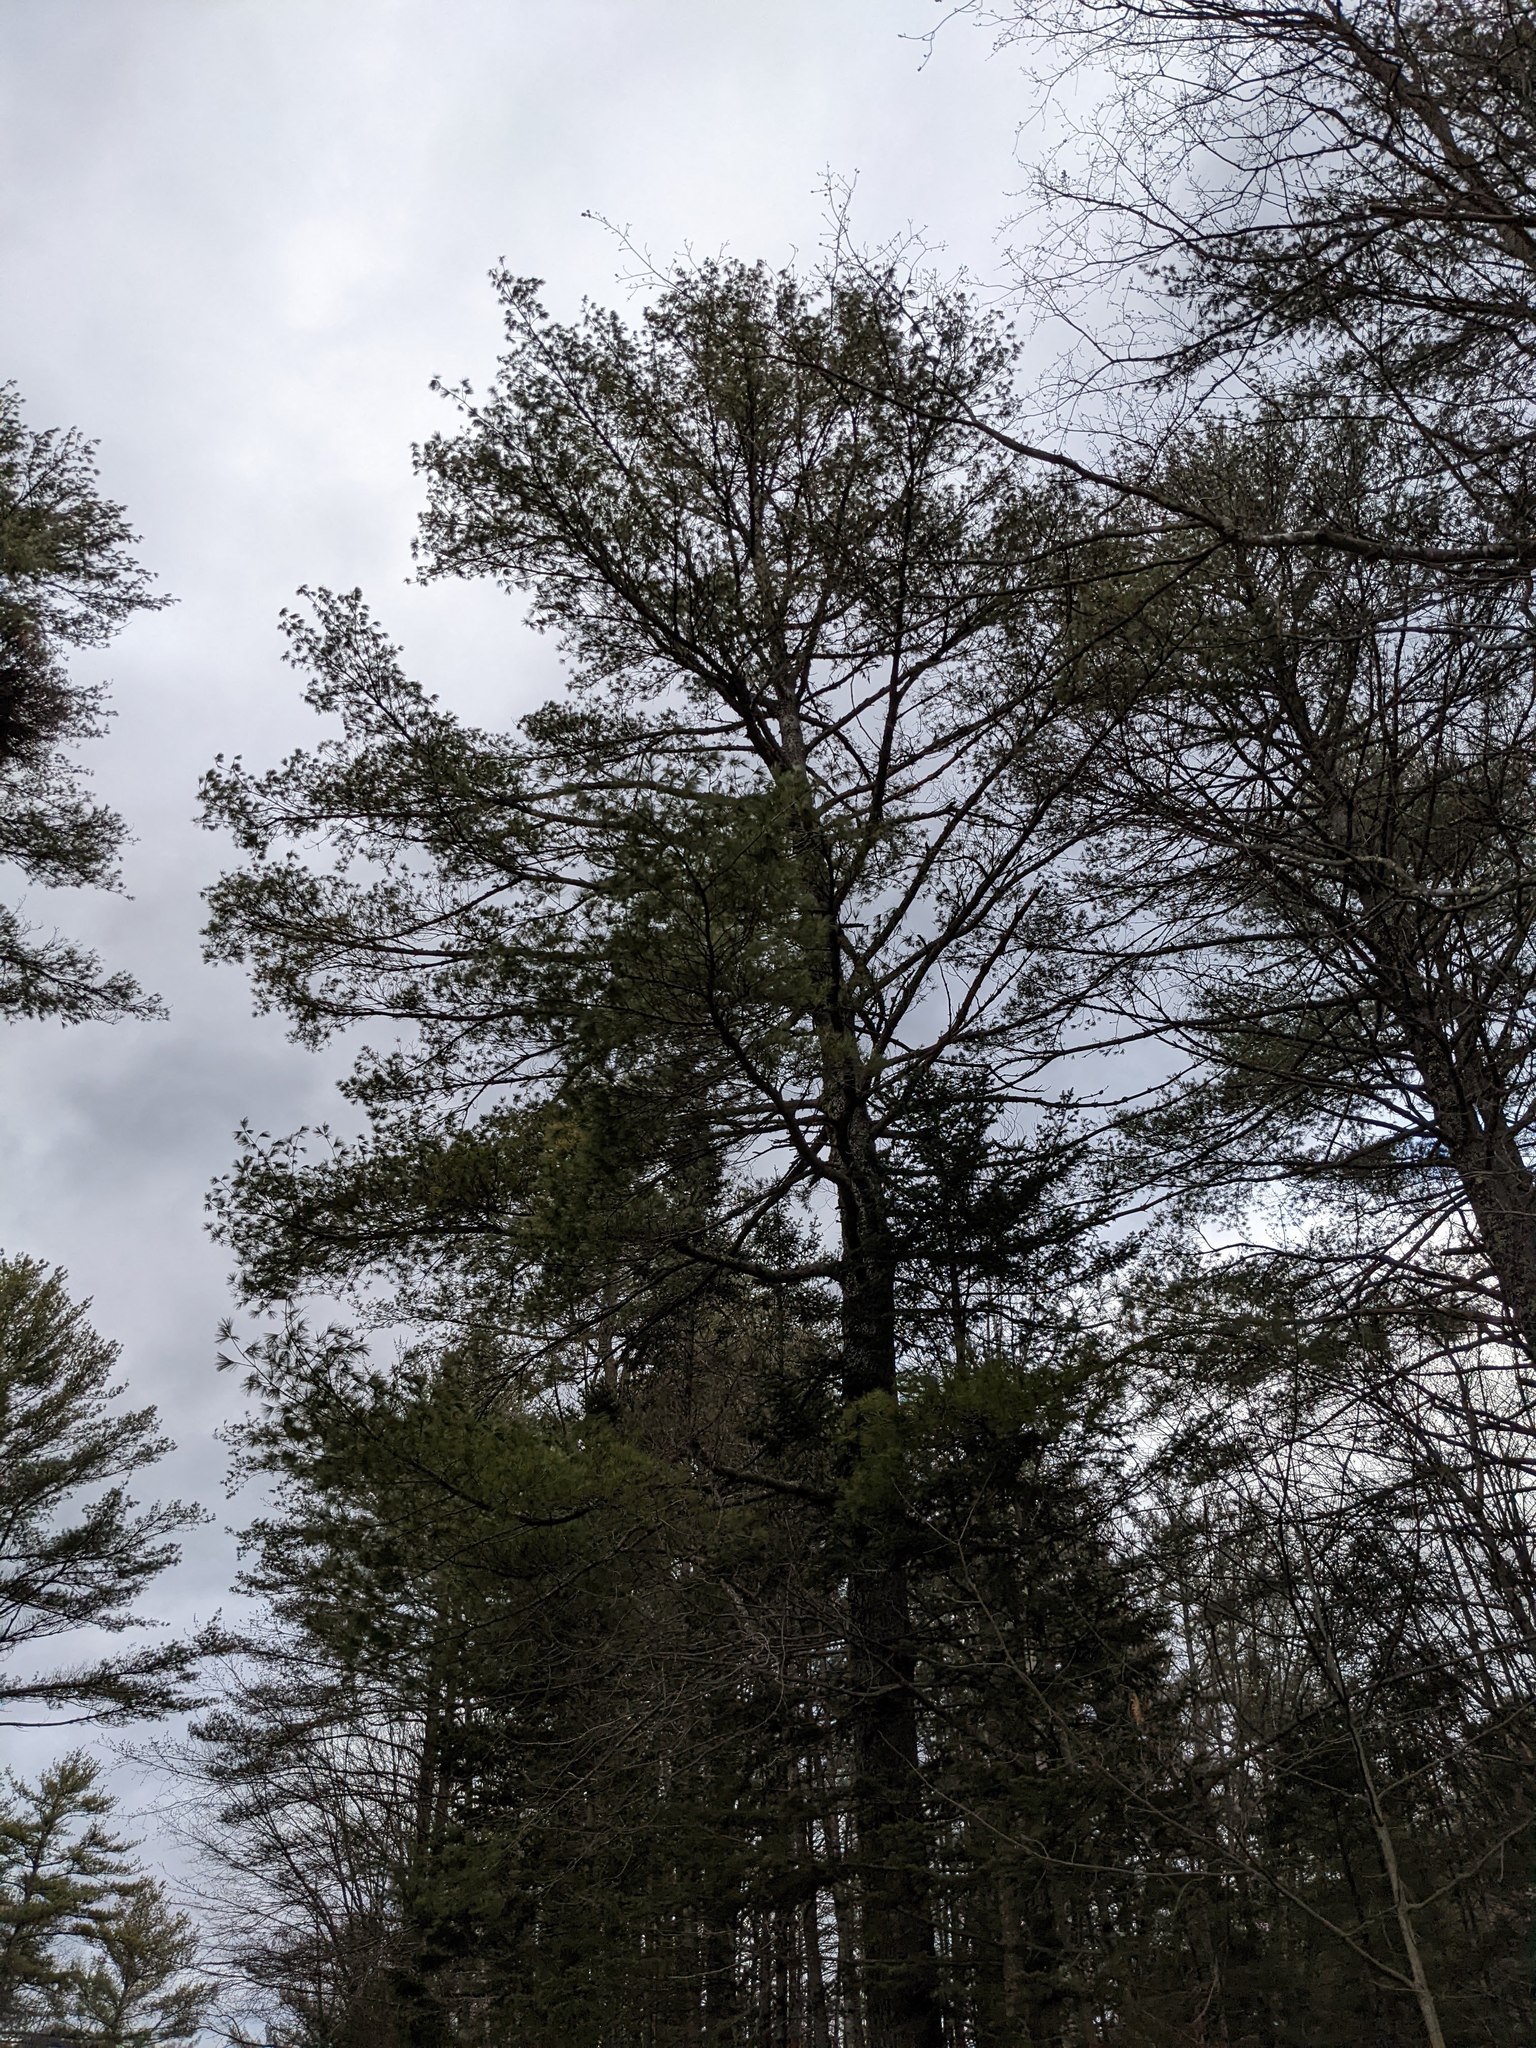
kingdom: Plantae
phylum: Tracheophyta
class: Pinopsida
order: Pinales
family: Pinaceae
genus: Pinus
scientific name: Pinus strobus
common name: Weymouth pine
